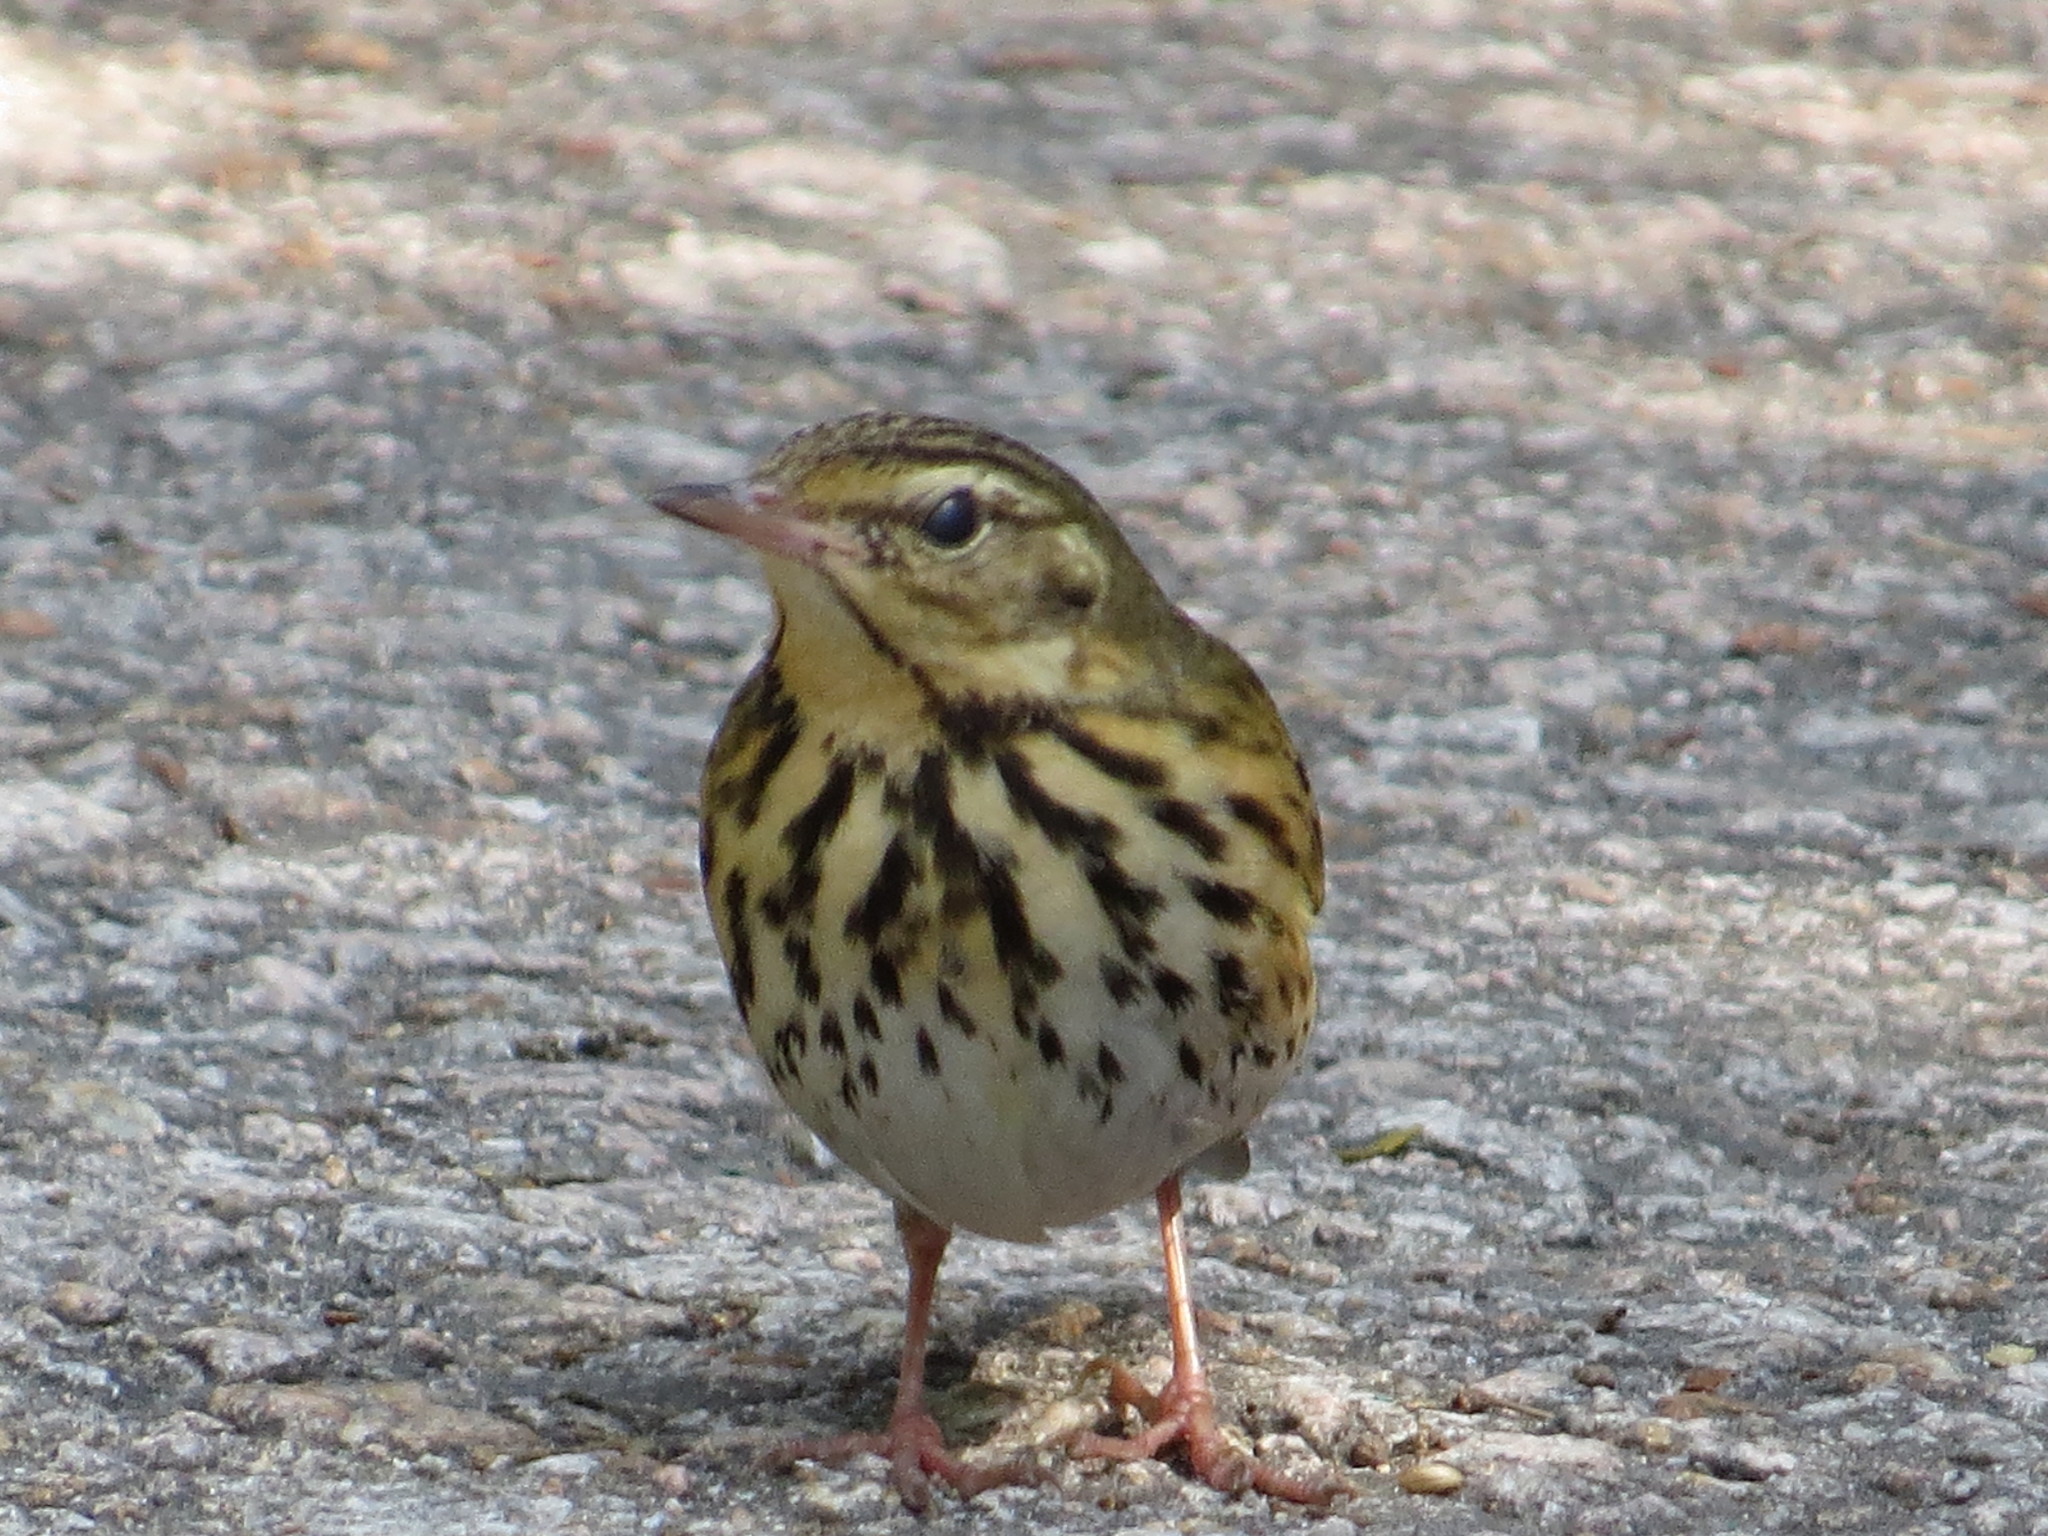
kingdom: Animalia
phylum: Chordata
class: Aves
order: Passeriformes
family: Motacillidae
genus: Anthus
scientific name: Anthus hodgsoni
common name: Olive-backed pipit
